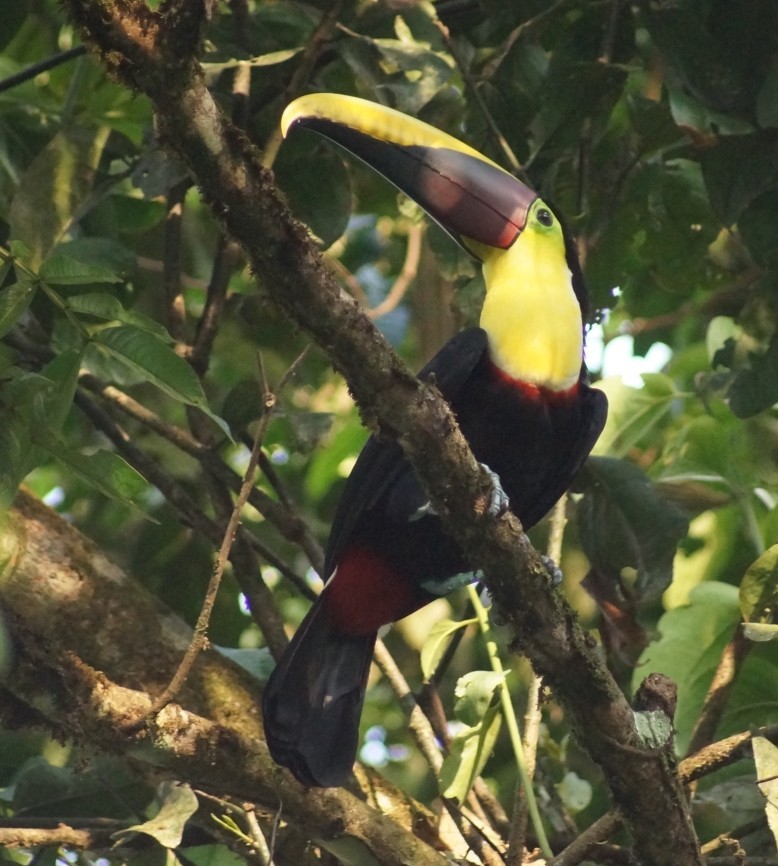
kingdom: Animalia
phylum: Chordata
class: Aves
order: Piciformes
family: Ramphastidae
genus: Ramphastos
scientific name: Ramphastos ambiguus
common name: Yellow-throated toucan
